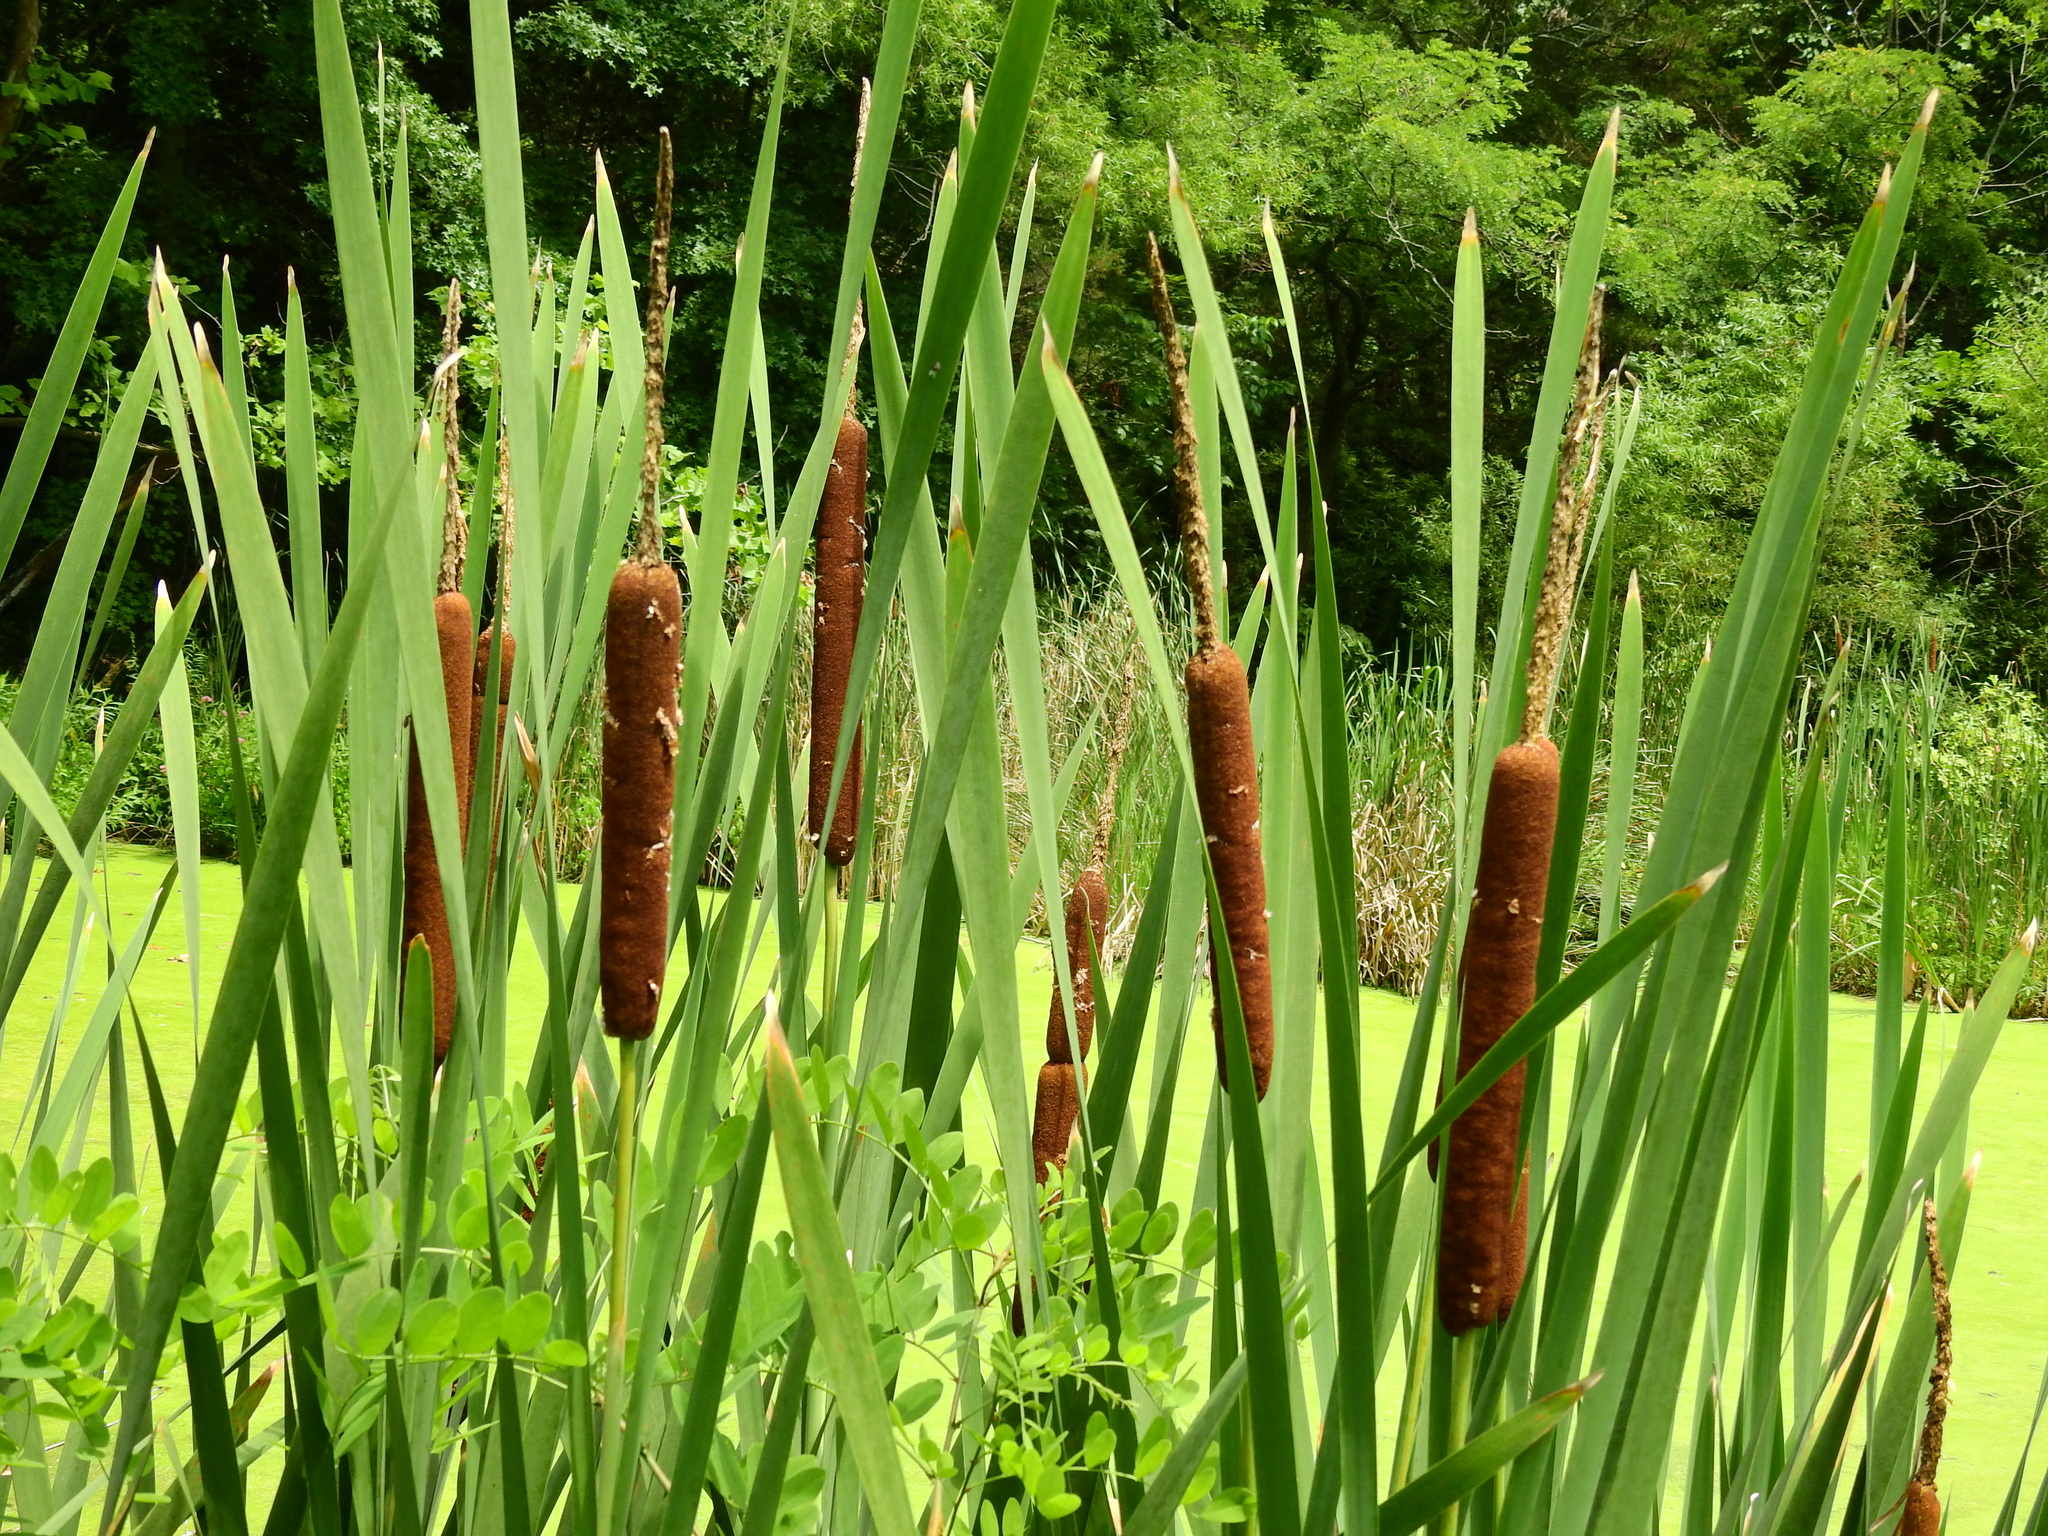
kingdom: Plantae
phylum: Tracheophyta
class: Liliopsida
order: Poales
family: Typhaceae
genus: Typha
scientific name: Typha latifolia
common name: Broadleaf cattail
